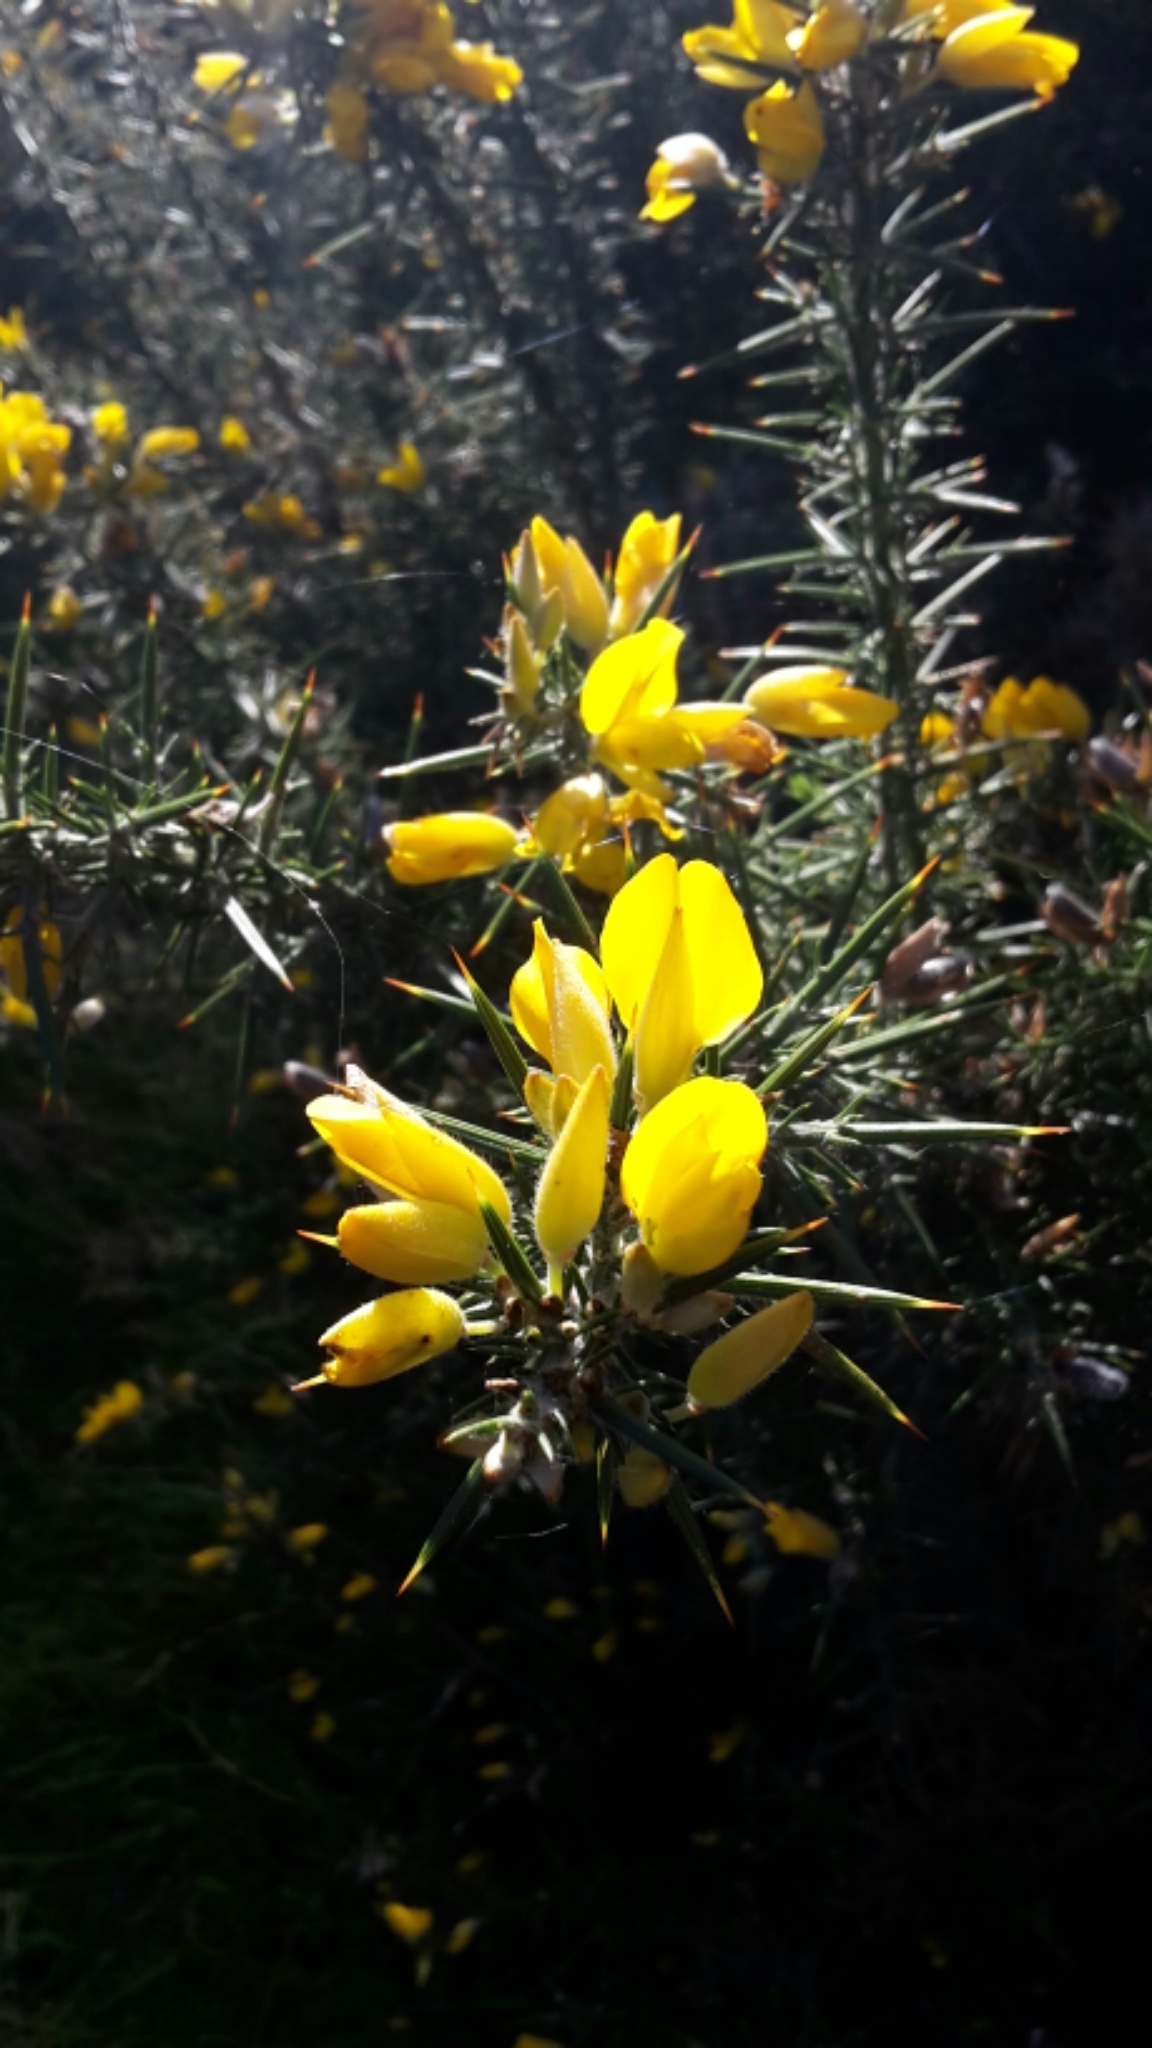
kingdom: Plantae
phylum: Tracheophyta
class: Magnoliopsida
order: Fabales
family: Fabaceae
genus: Ulex
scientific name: Ulex europaeus
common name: Common gorse
